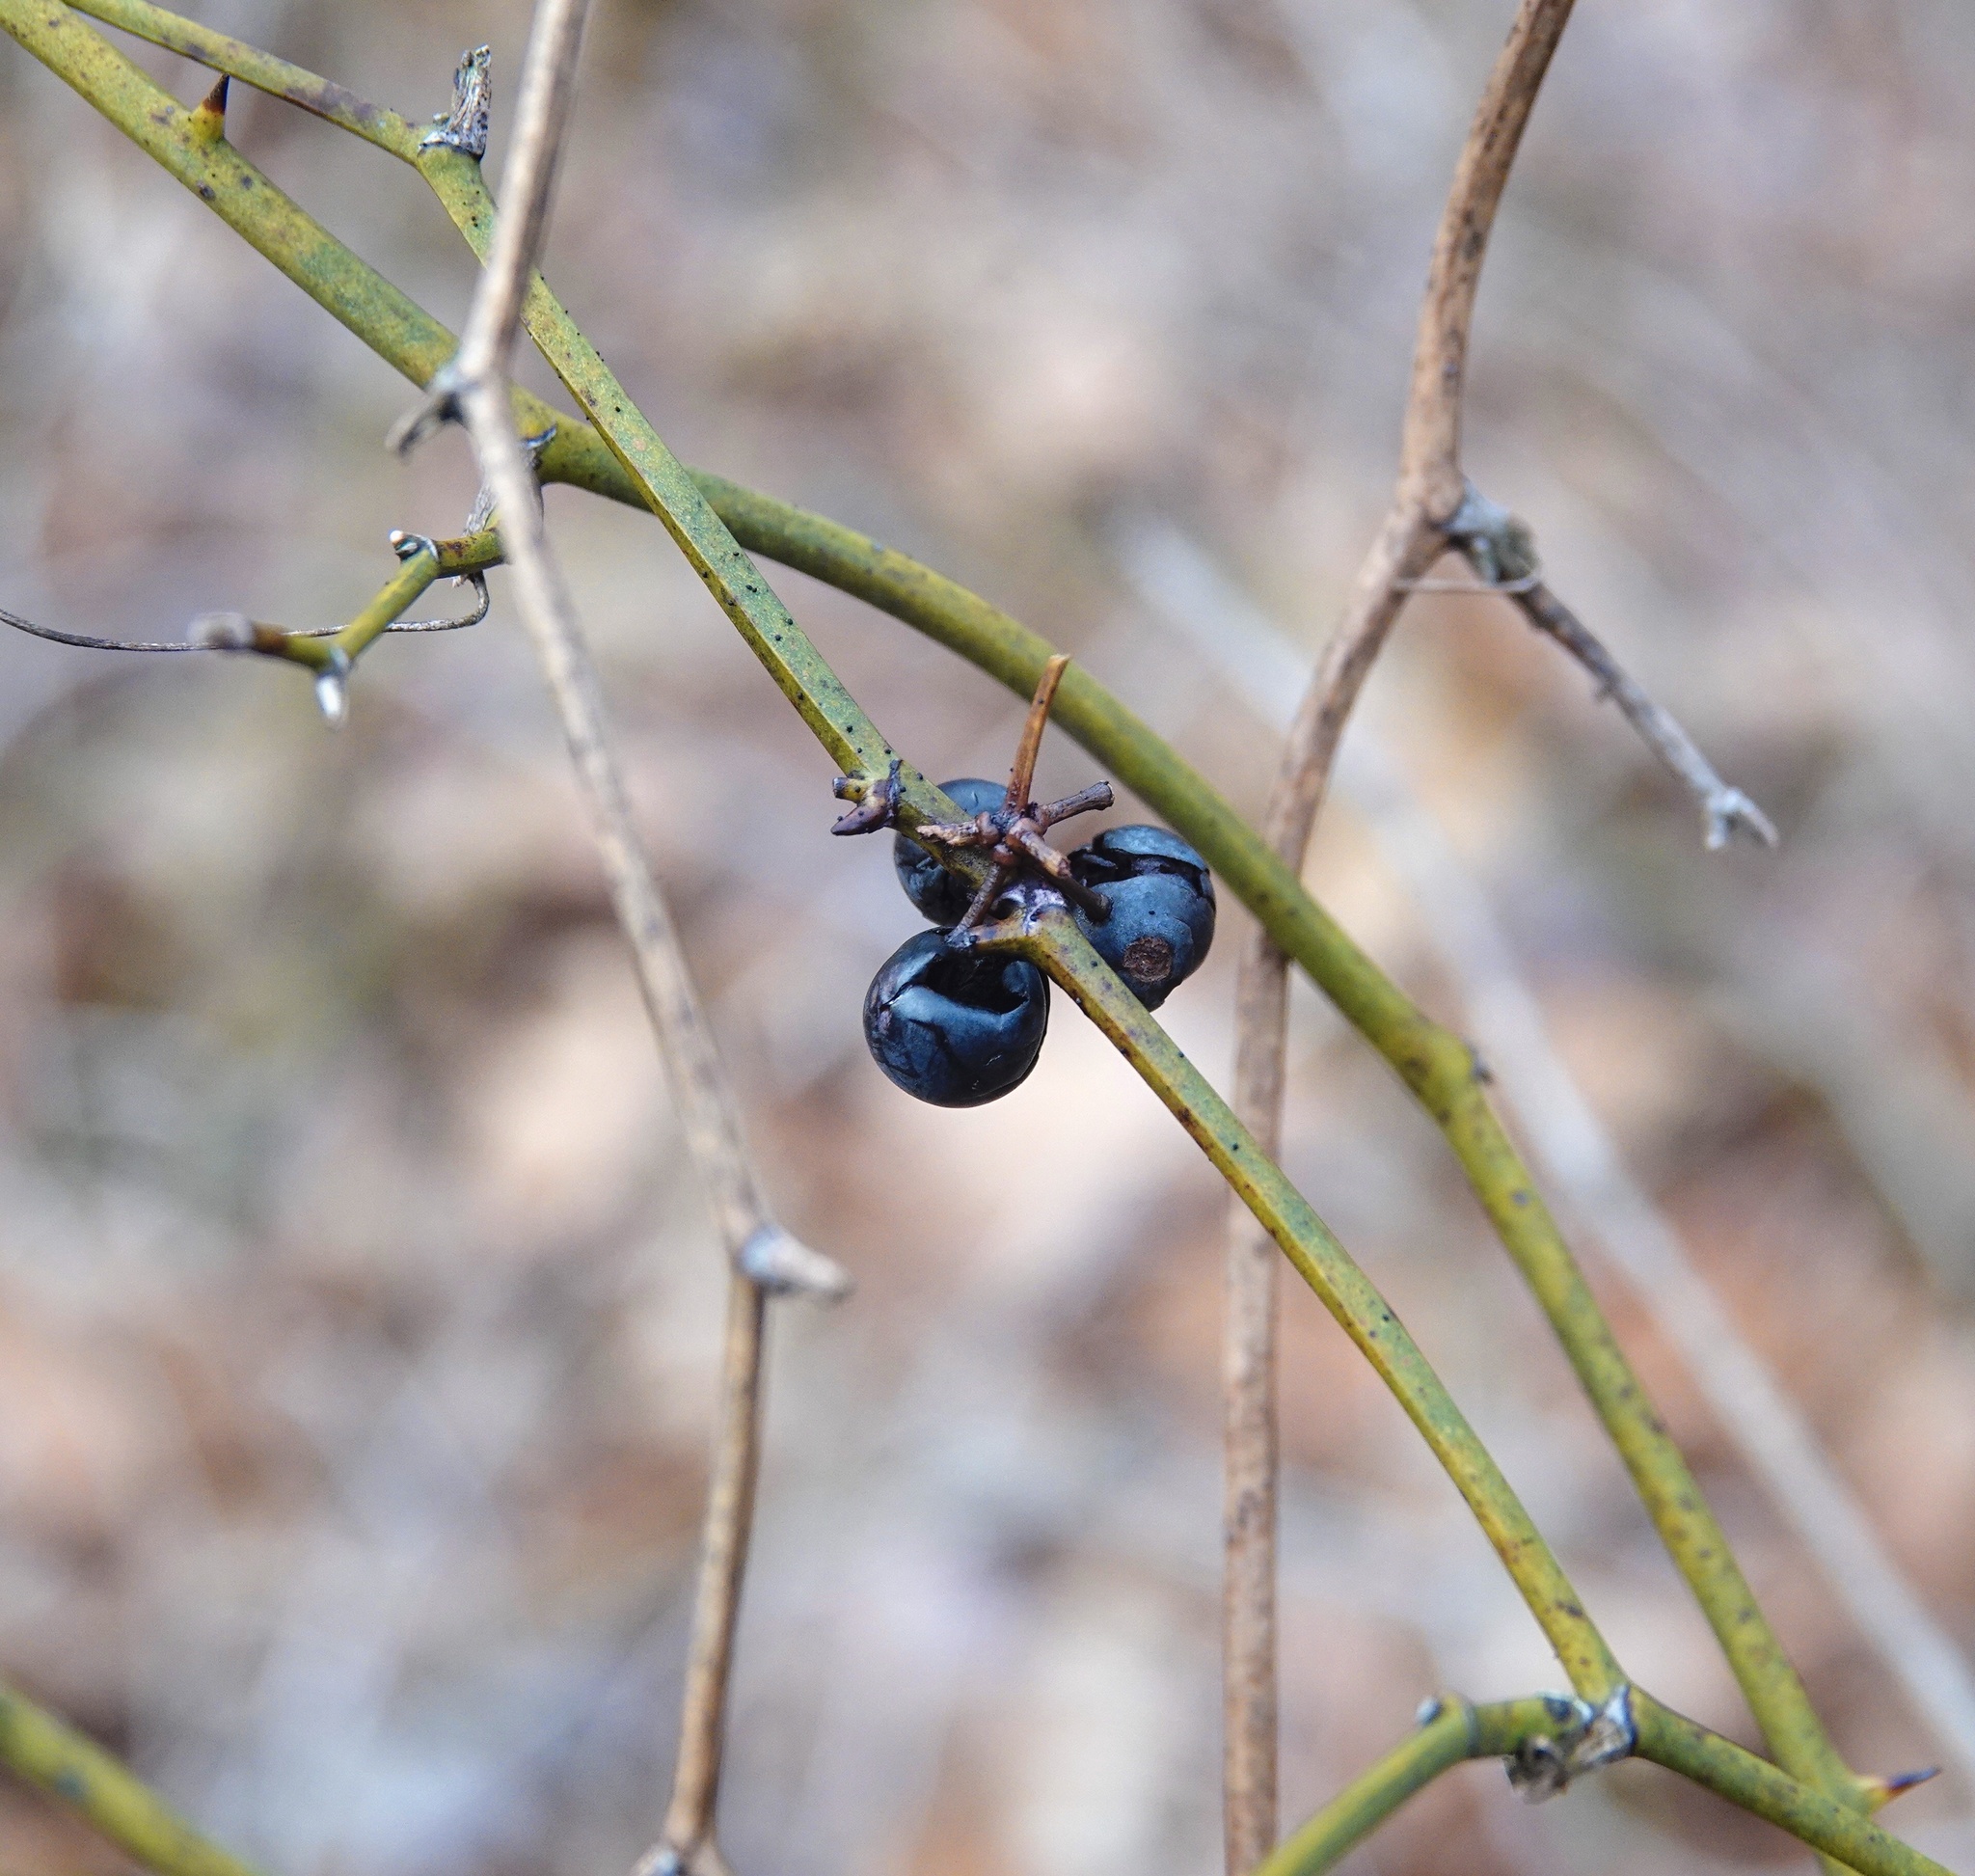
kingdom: Plantae
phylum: Tracheophyta
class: Liliopsida
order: Liliales
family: Smilacaceae
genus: Smilax
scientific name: Smilax rotundifolia
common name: Bullbriar
